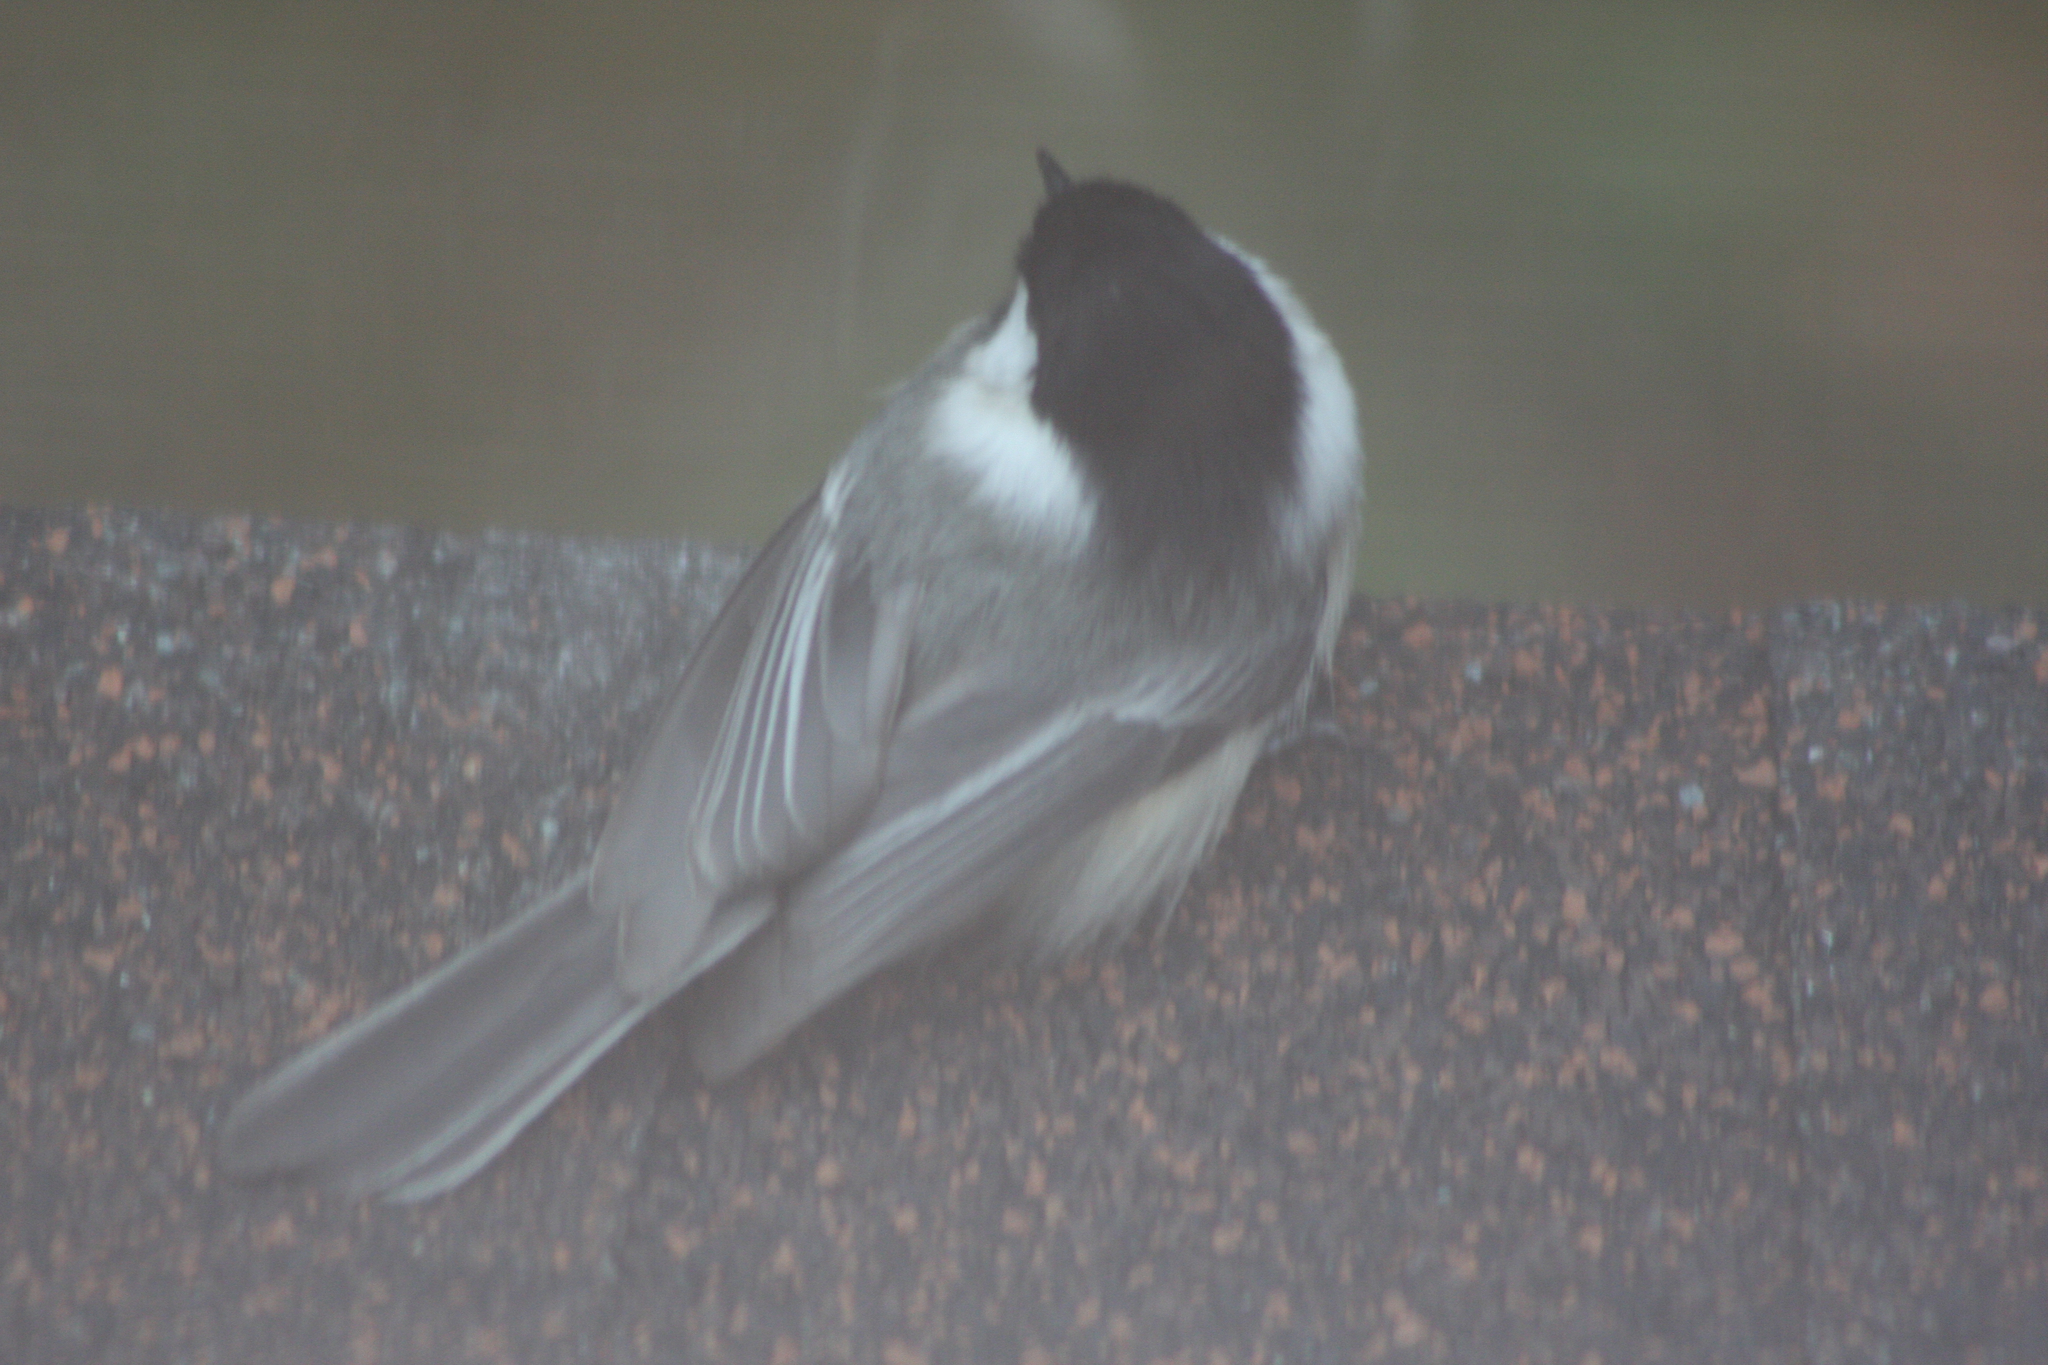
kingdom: Animalia
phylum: Chordata
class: Aves
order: Passeriformes
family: Paridae
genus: Poecile
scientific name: Poecile atricapillus
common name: Black-capped chickadee
